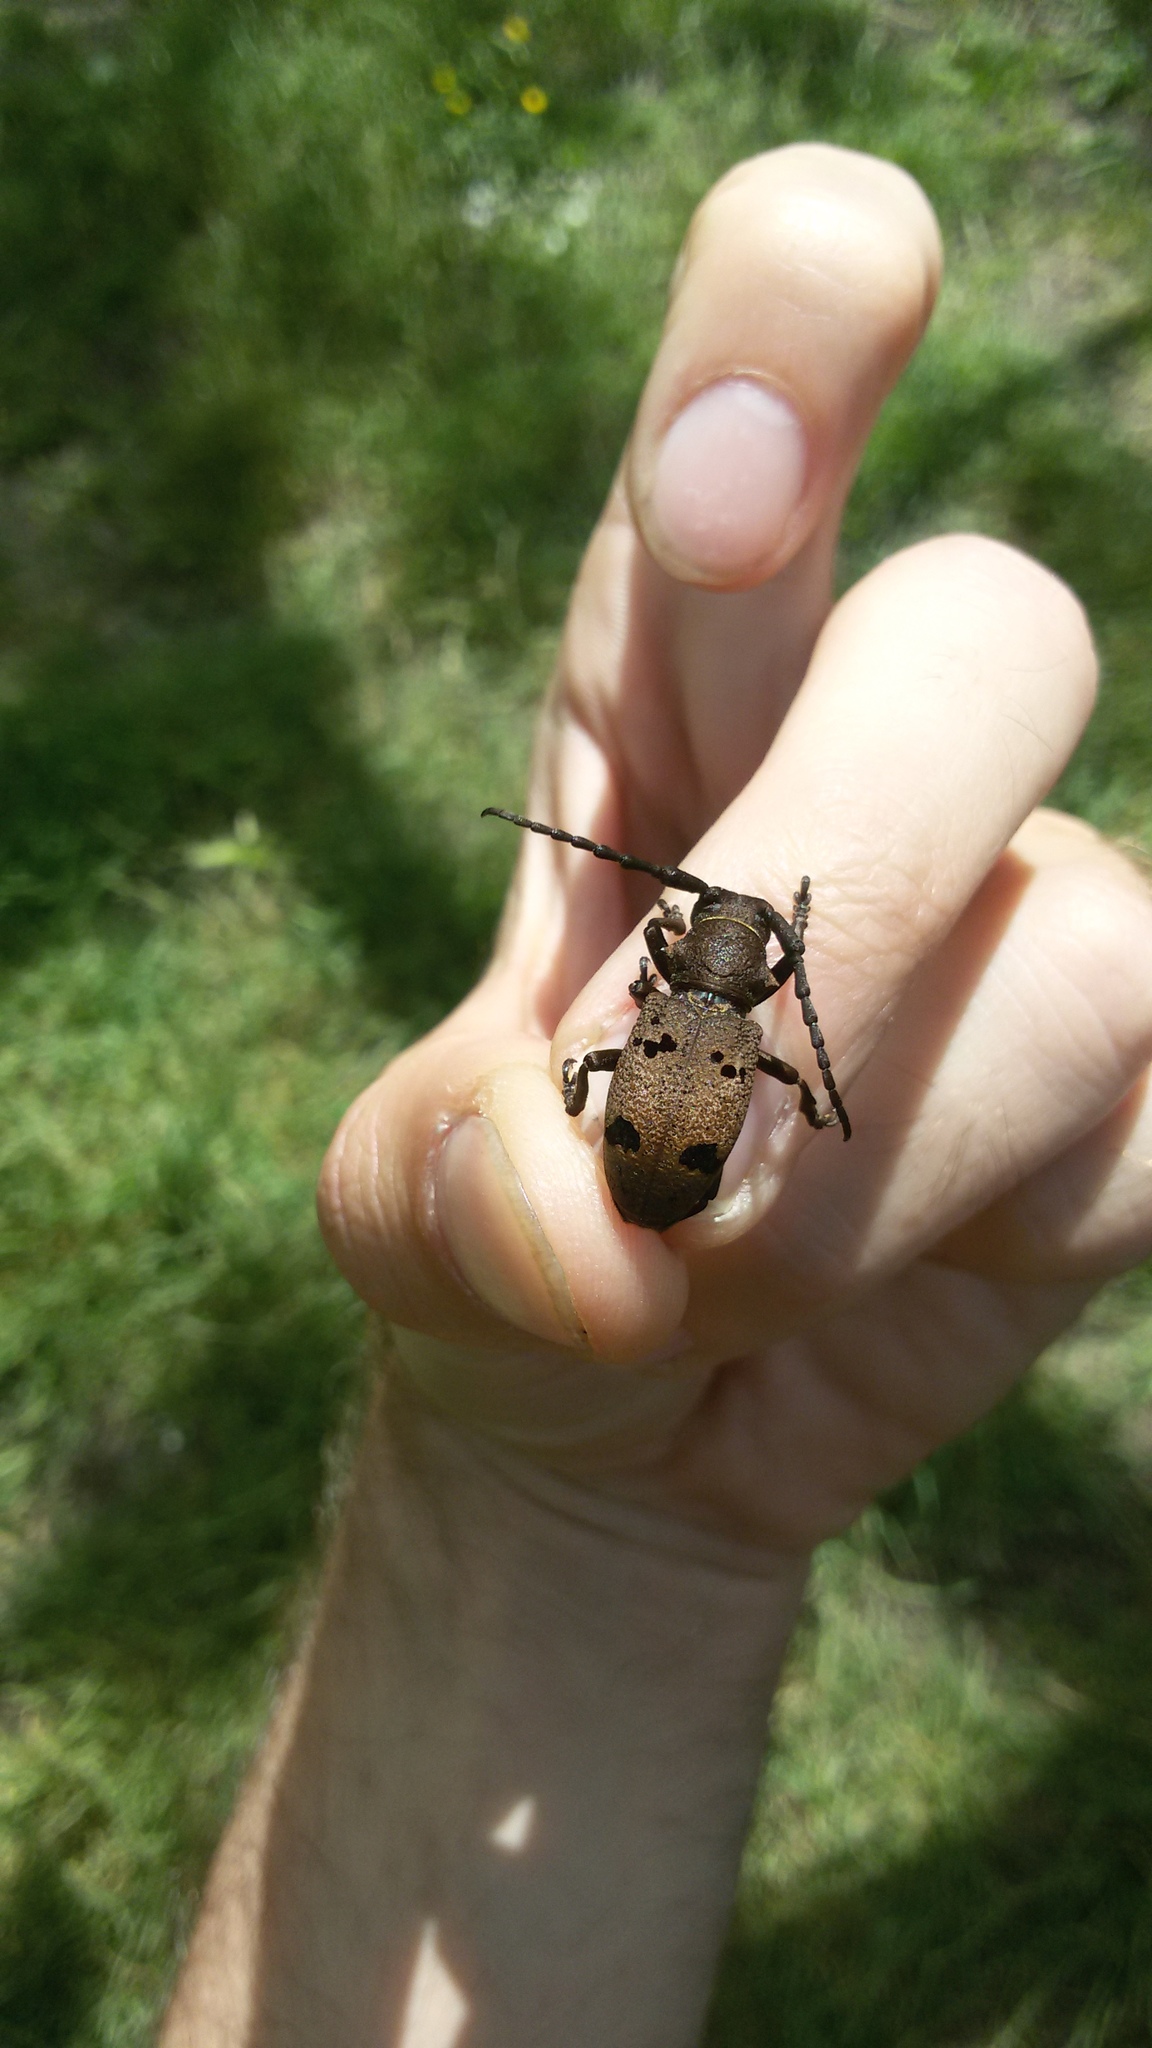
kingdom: Animalia
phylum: Arthropoda
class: Insecta
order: Coleoptera
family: Cerambycidae
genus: Herophila
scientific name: Herophila tristis
